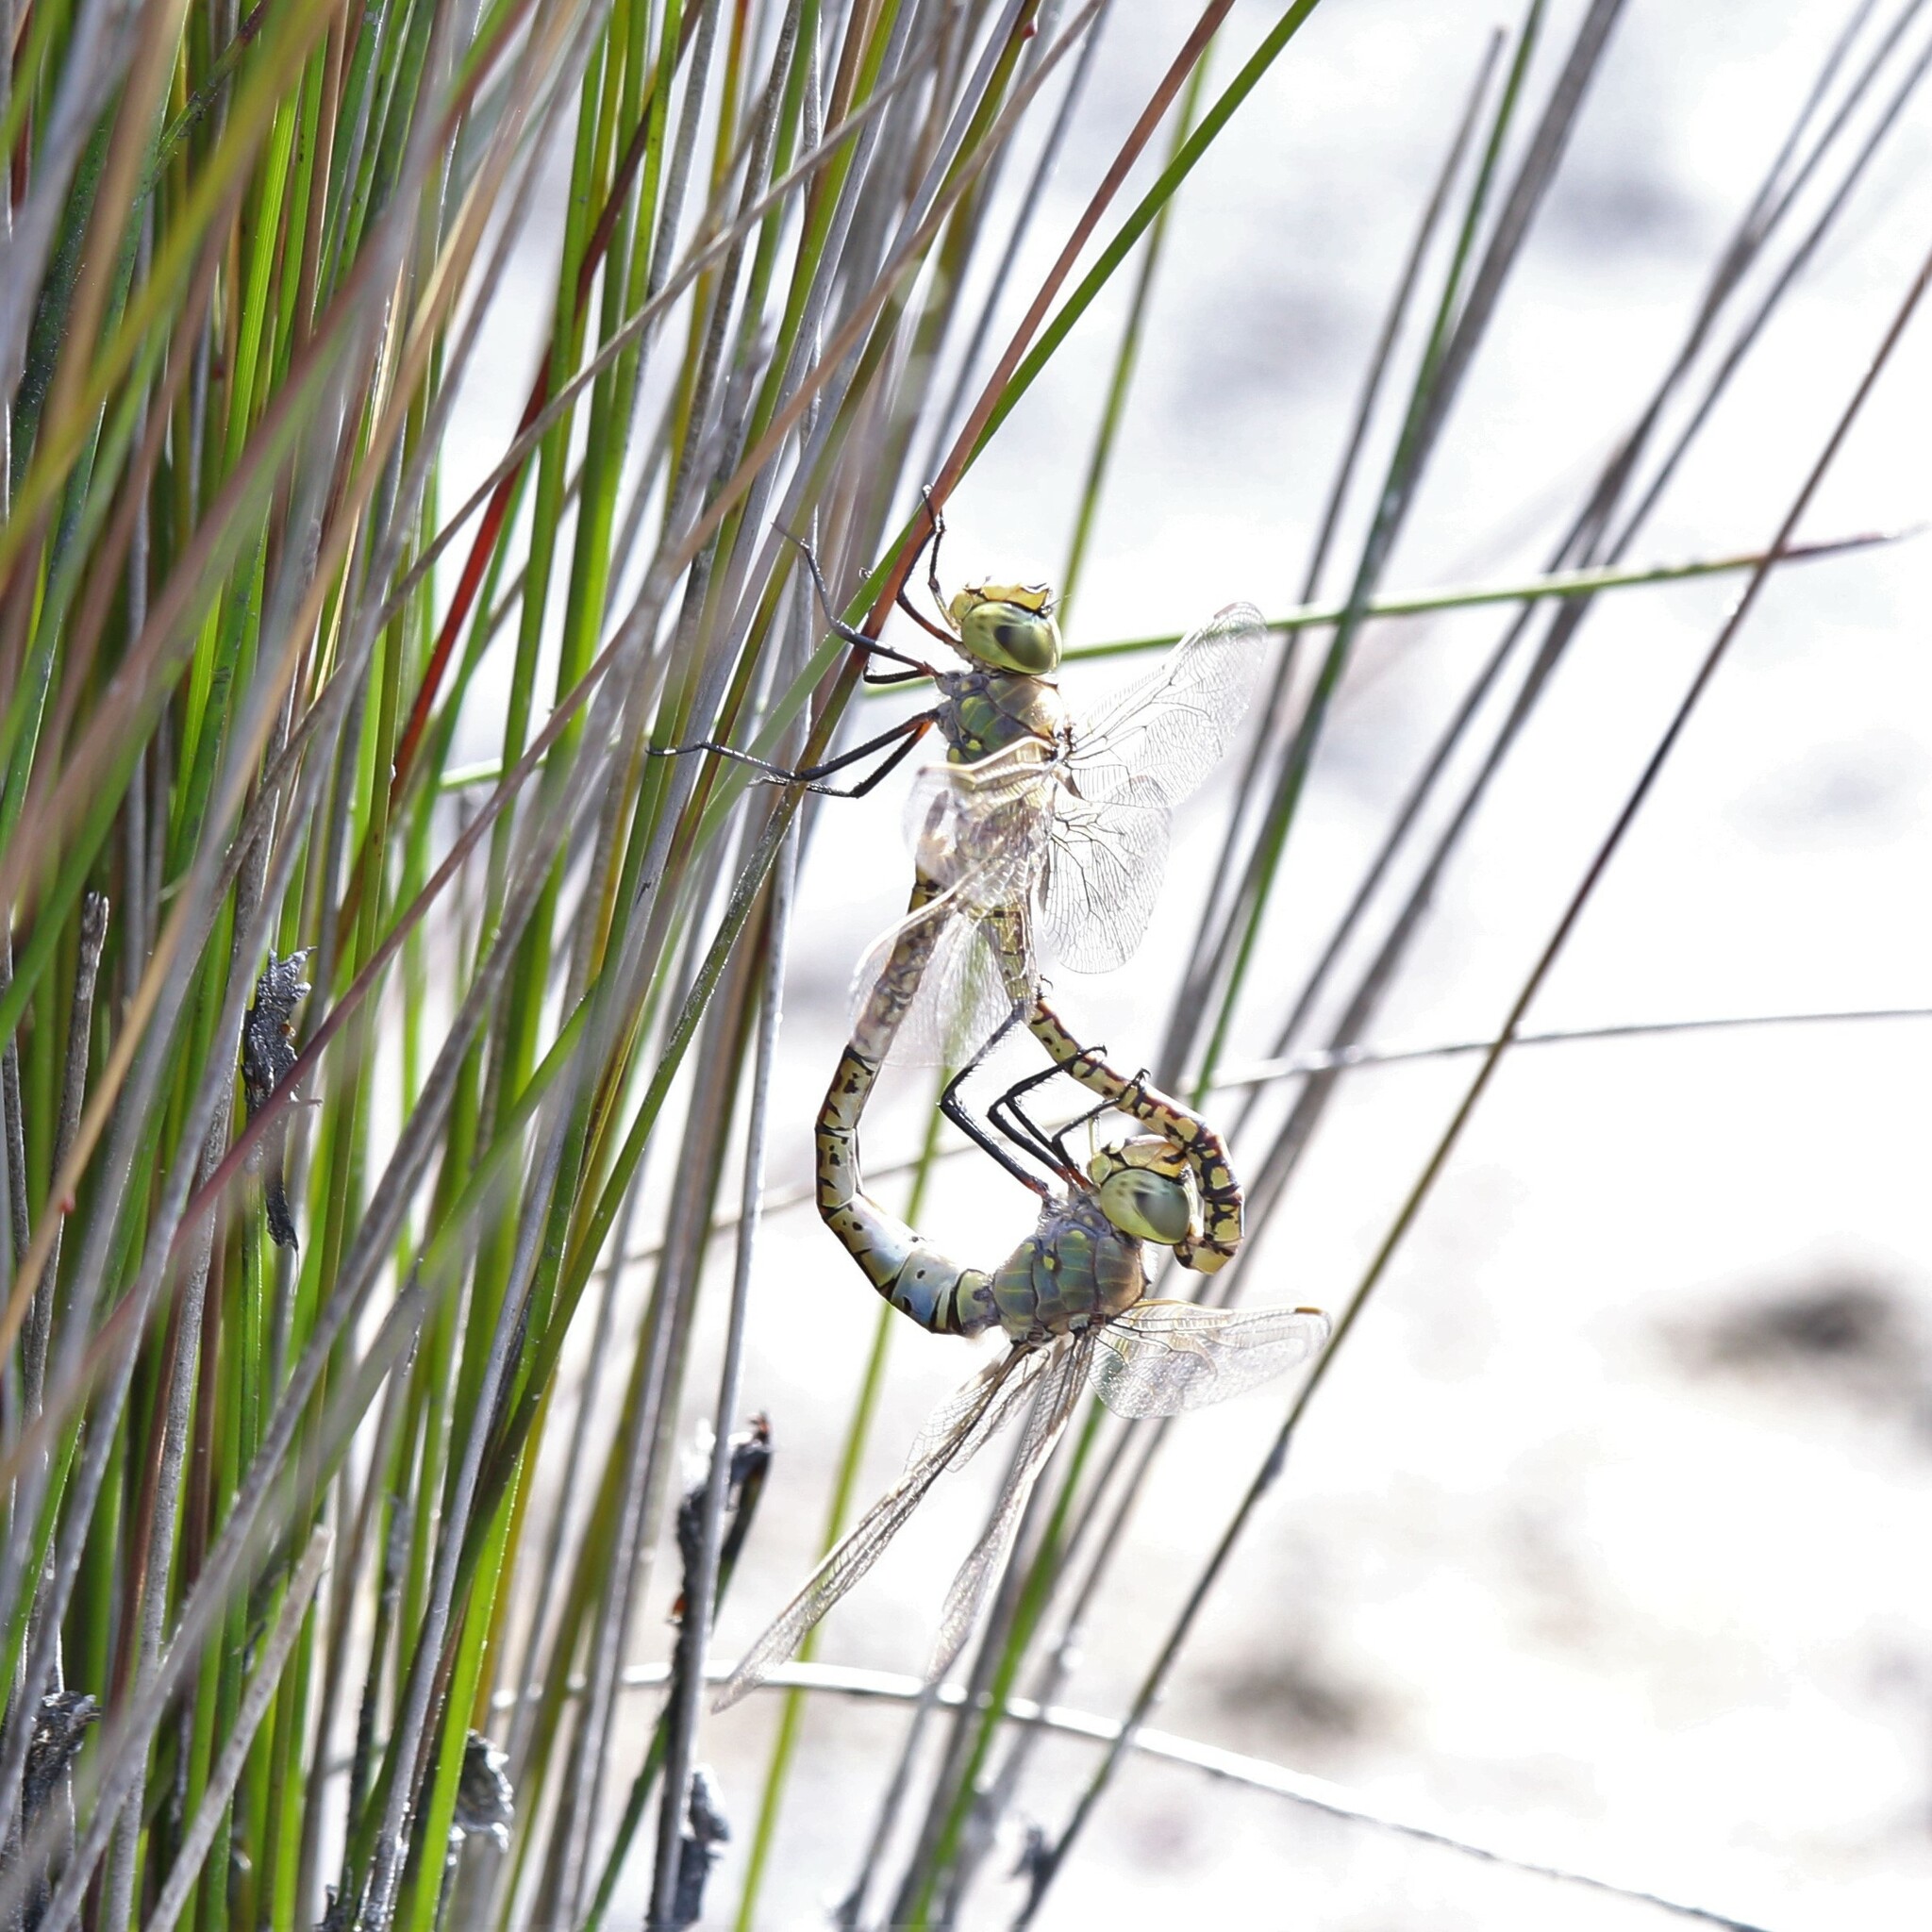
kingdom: Animalia
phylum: Arthropoda
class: Insecta
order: Odonata
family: Aeshnidae
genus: Anax
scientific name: Anax papuensis
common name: Australian emperor
